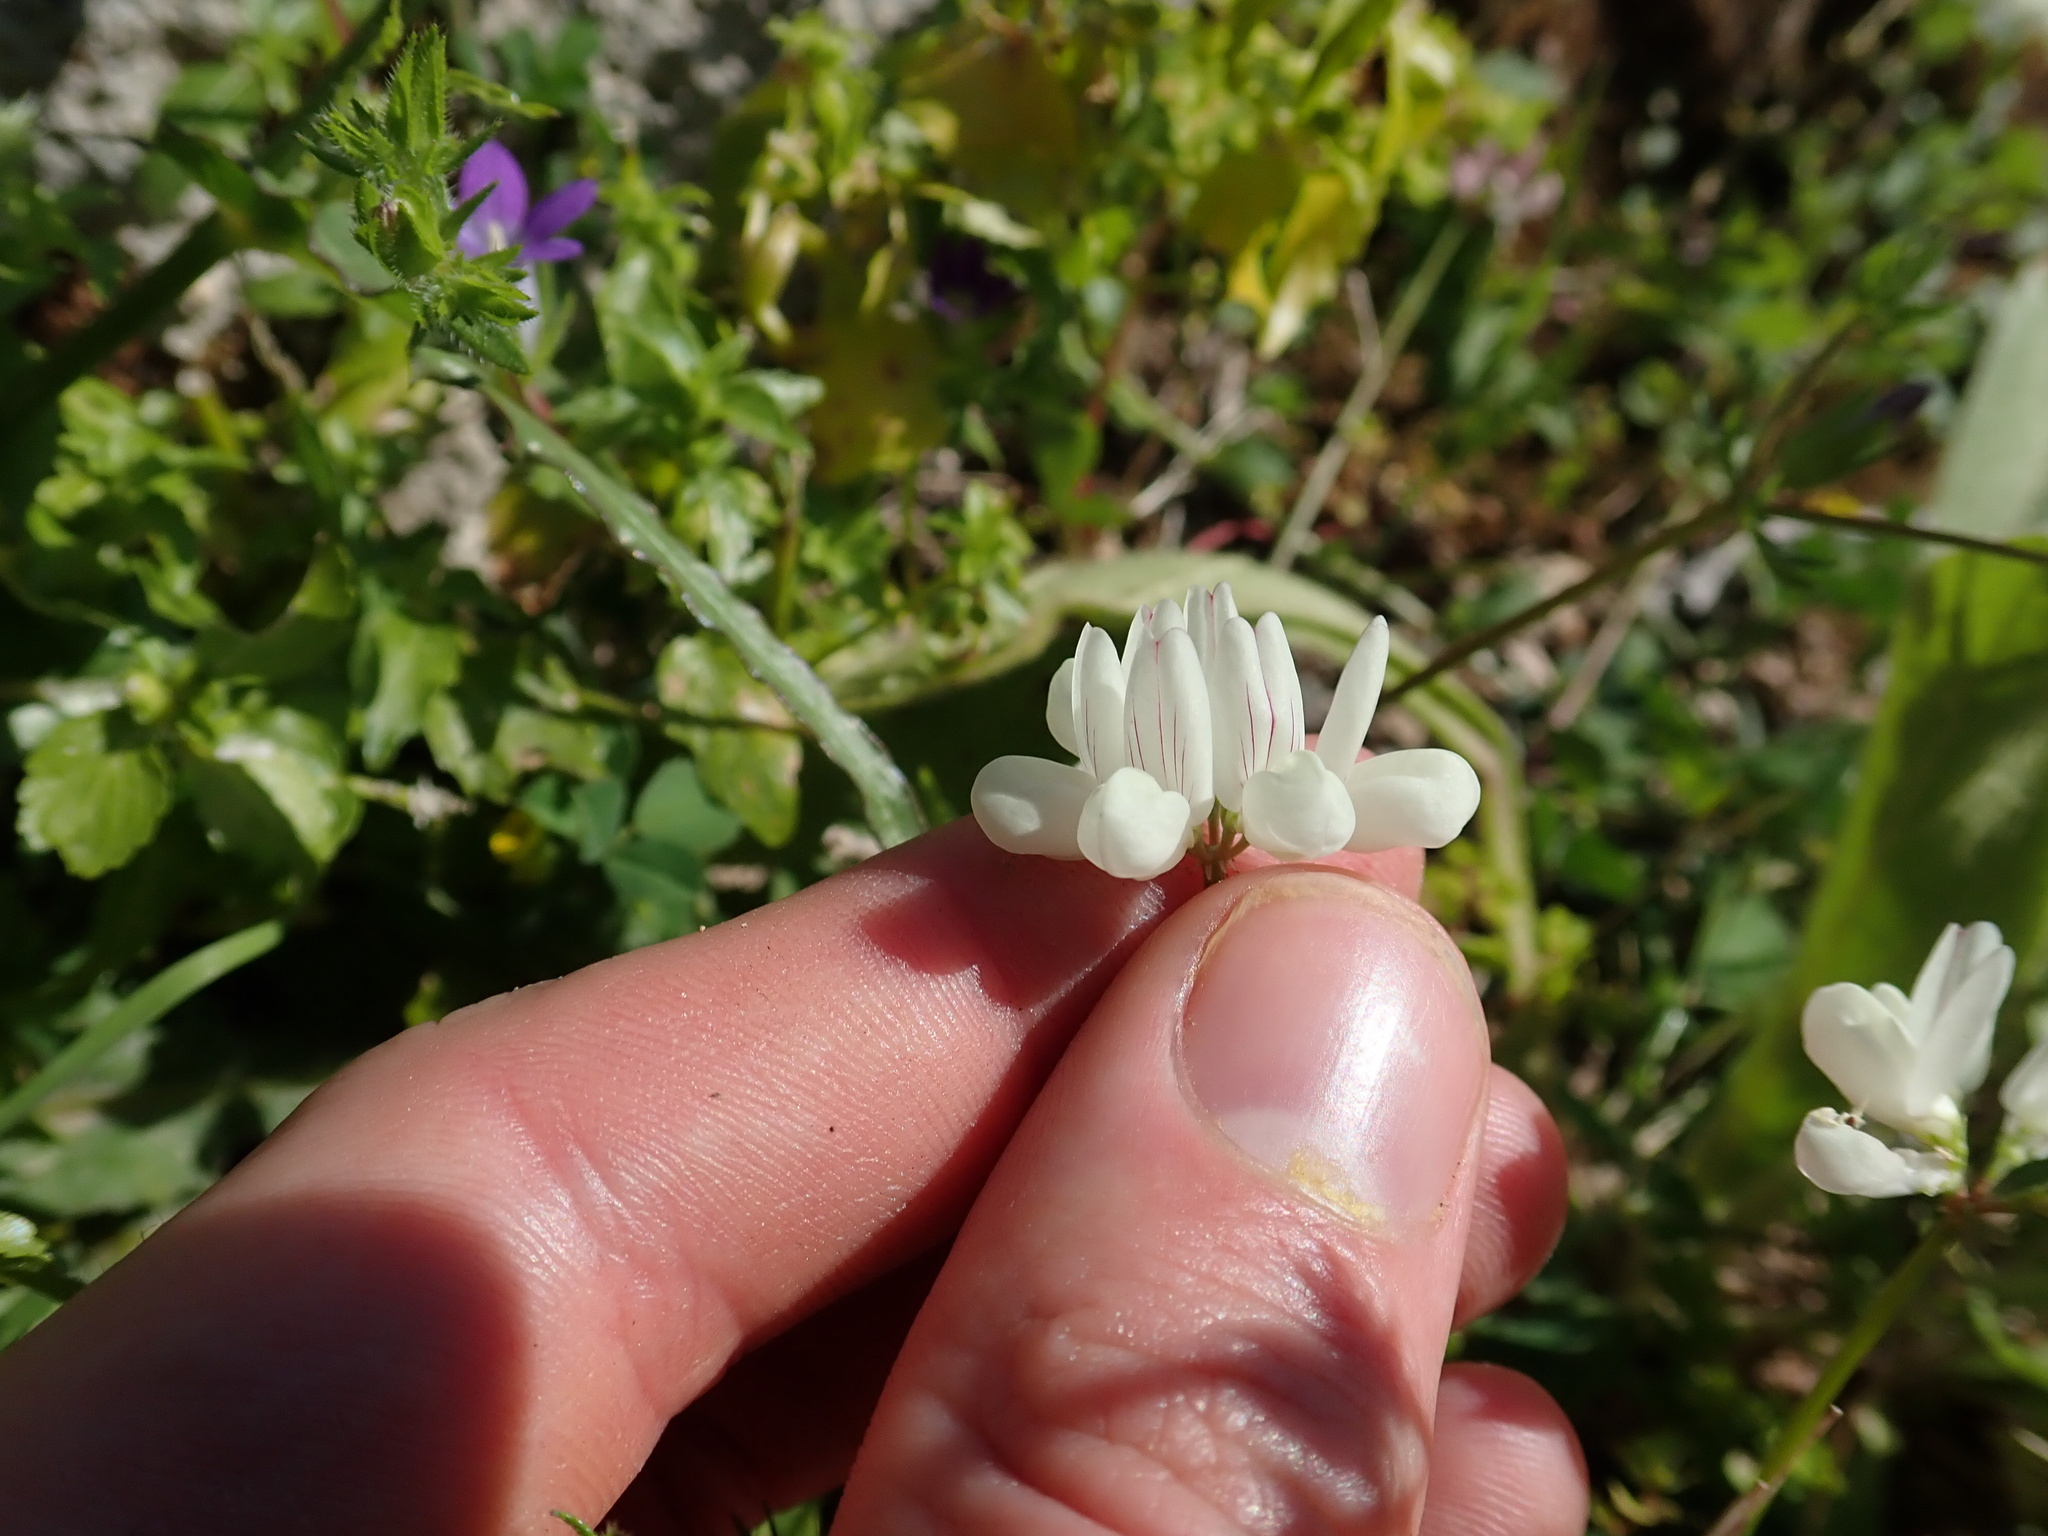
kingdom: Plantae
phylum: Tracheophyta
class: Magnoliopsida
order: Fabales
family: Fabaceae
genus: Coronilla
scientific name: Coronilla cretica
